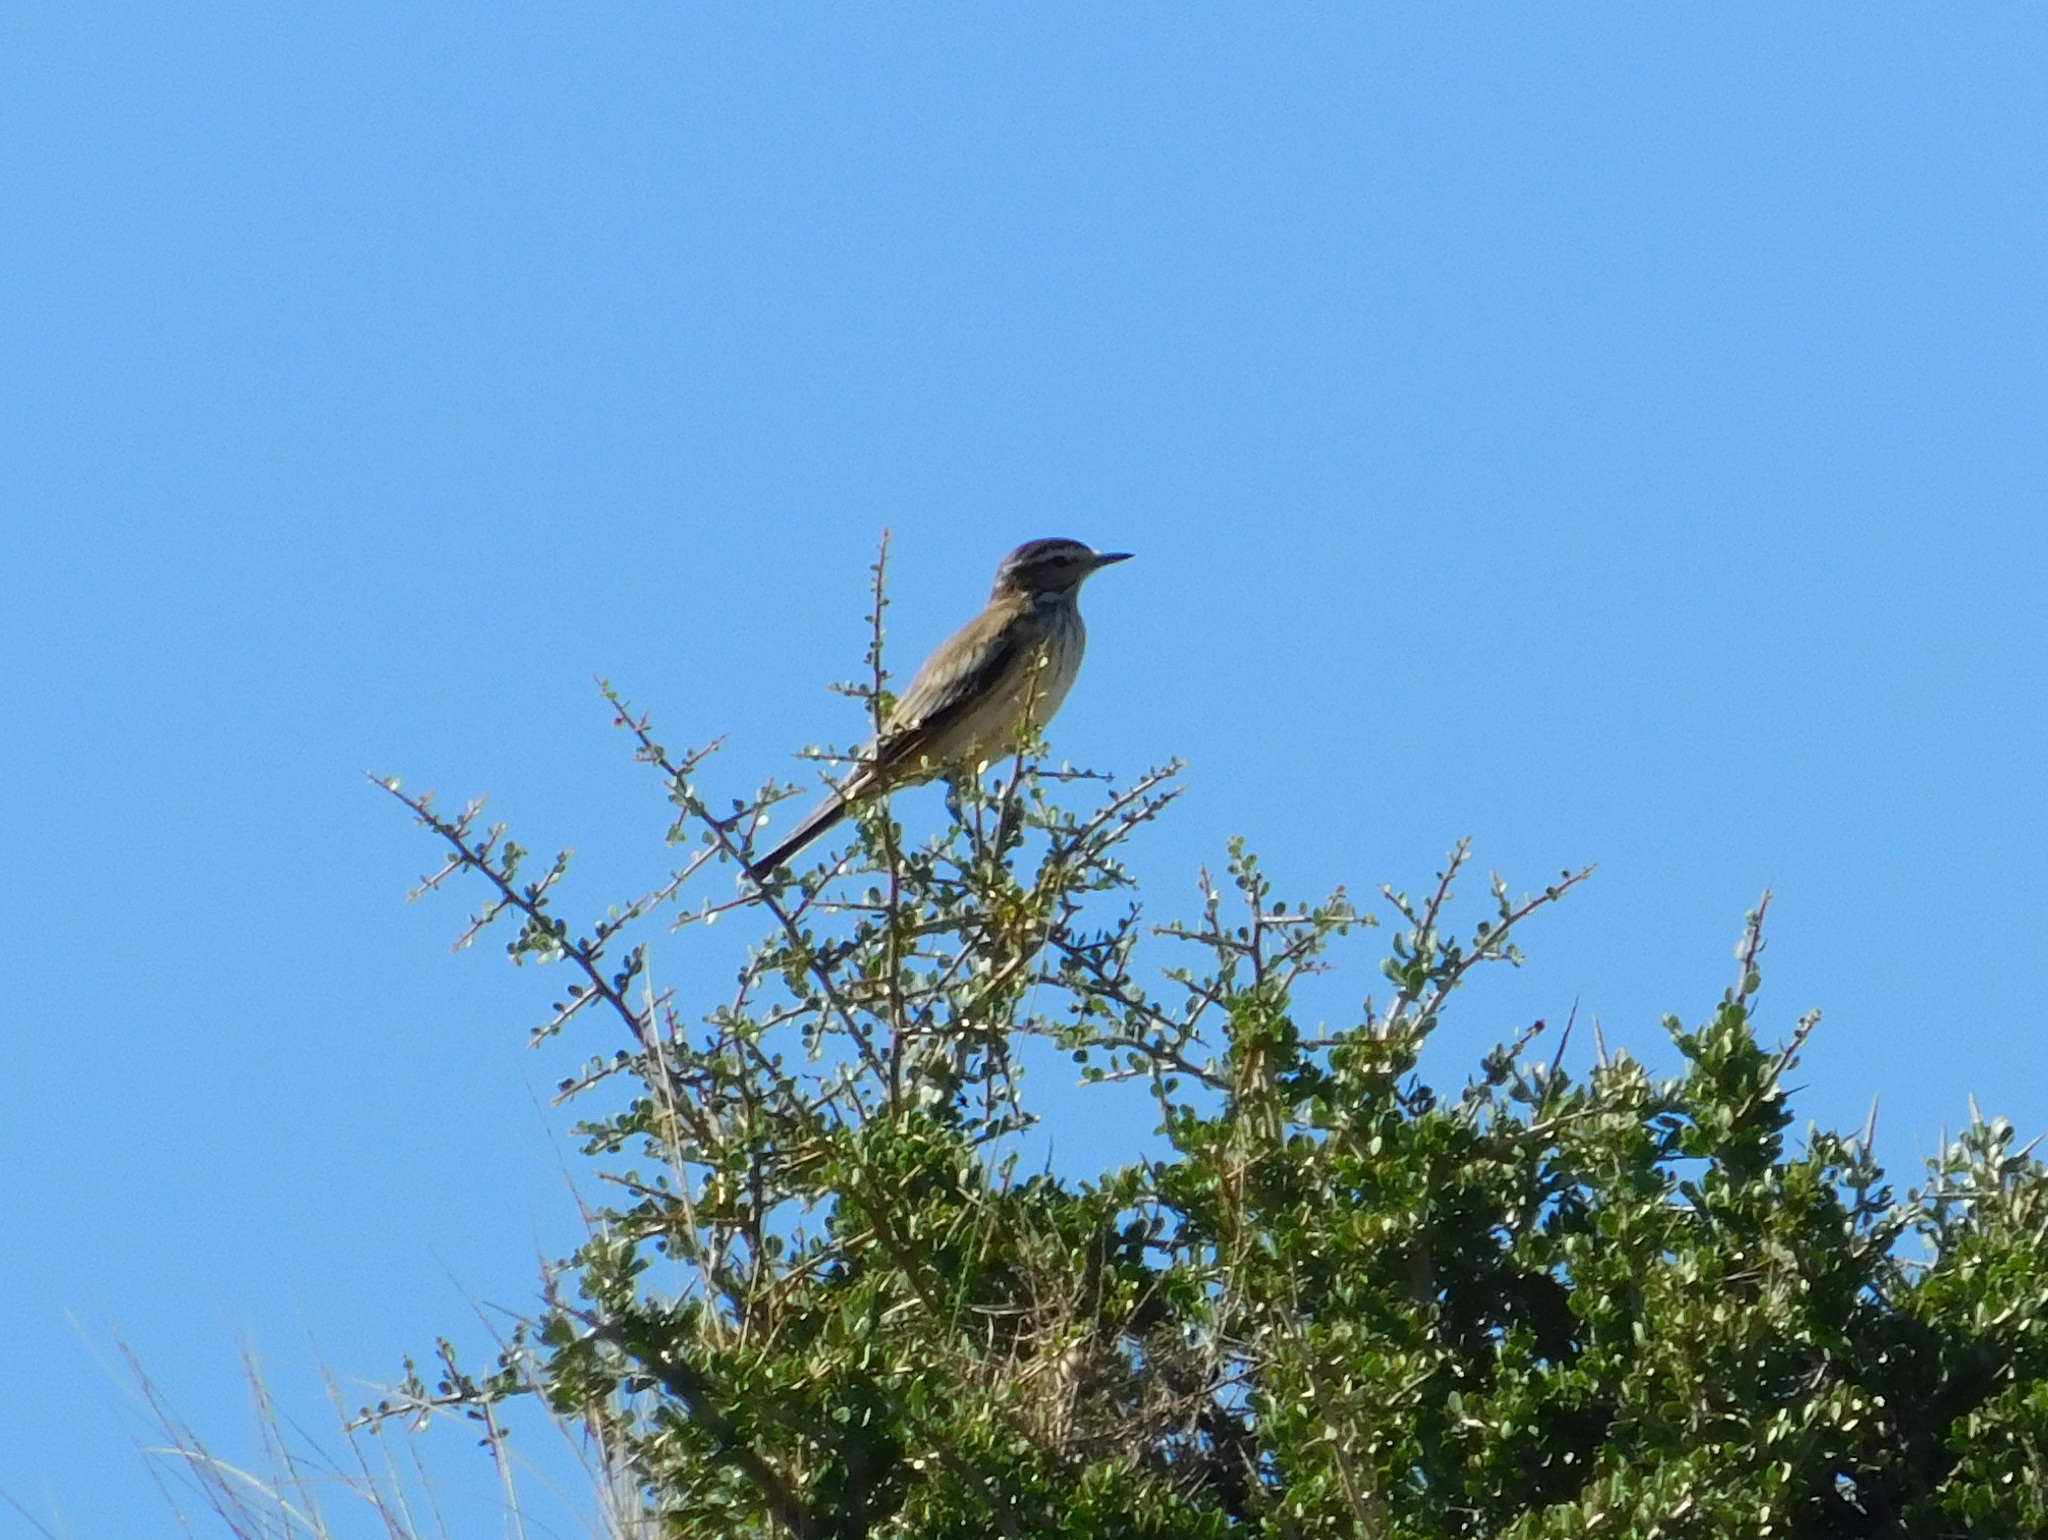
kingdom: Animalia
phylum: Chordata
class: Aves
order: Passeriformes
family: Tyrannidae
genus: Xolmis
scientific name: Xolmis rubetra
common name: Rusty-backed monjita
